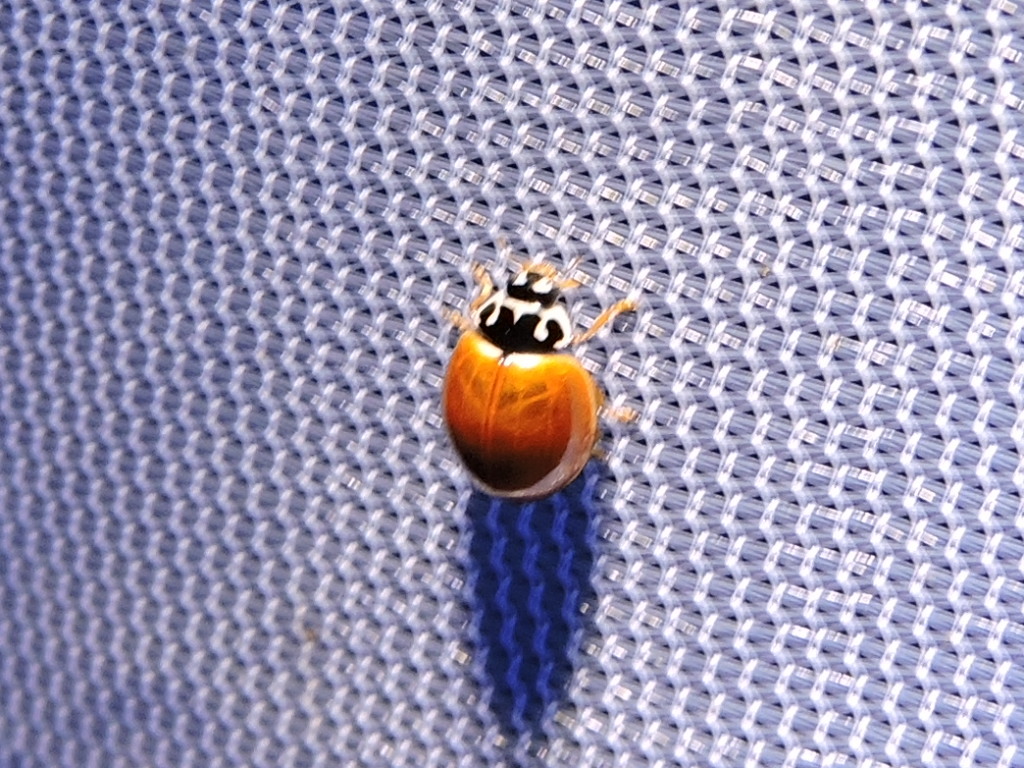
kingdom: Animalia
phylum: Arthropoda
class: Insecta
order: Coleoptera
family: Coccinellidae
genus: Cycloneda
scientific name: Cycloneda munda
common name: Polished lady beetle
